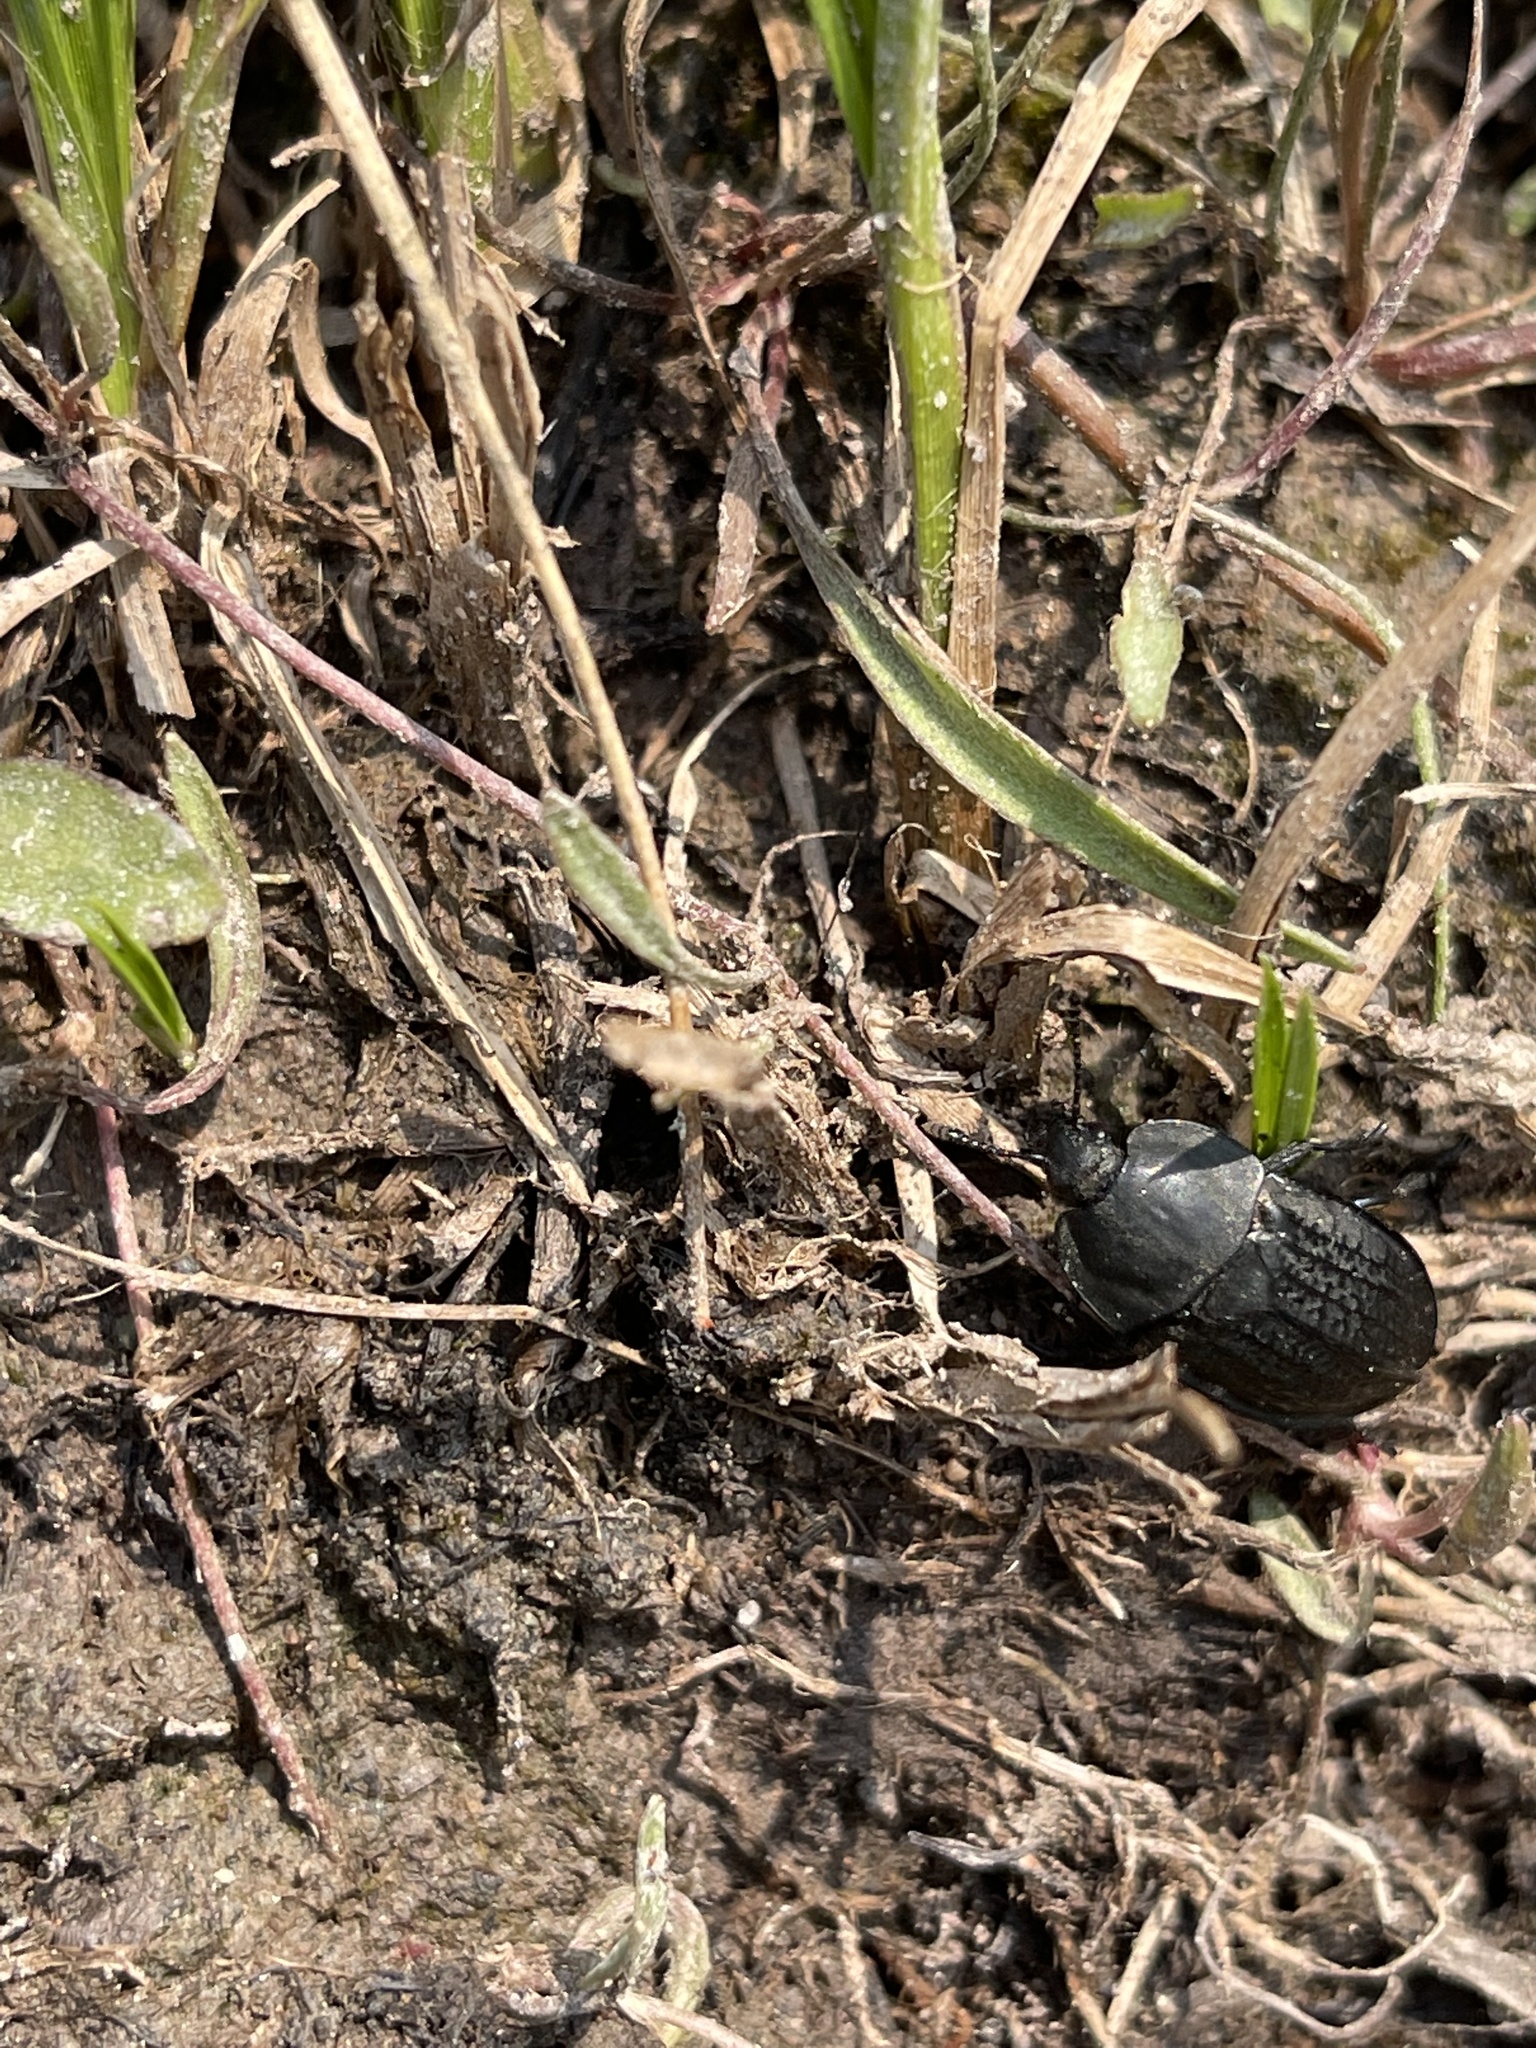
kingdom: Animalia
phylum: Arthropoda
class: Insecta
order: Coleoptera
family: Staphylinidae
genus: Heterosilpha
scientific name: Heterosilpha ramosa
